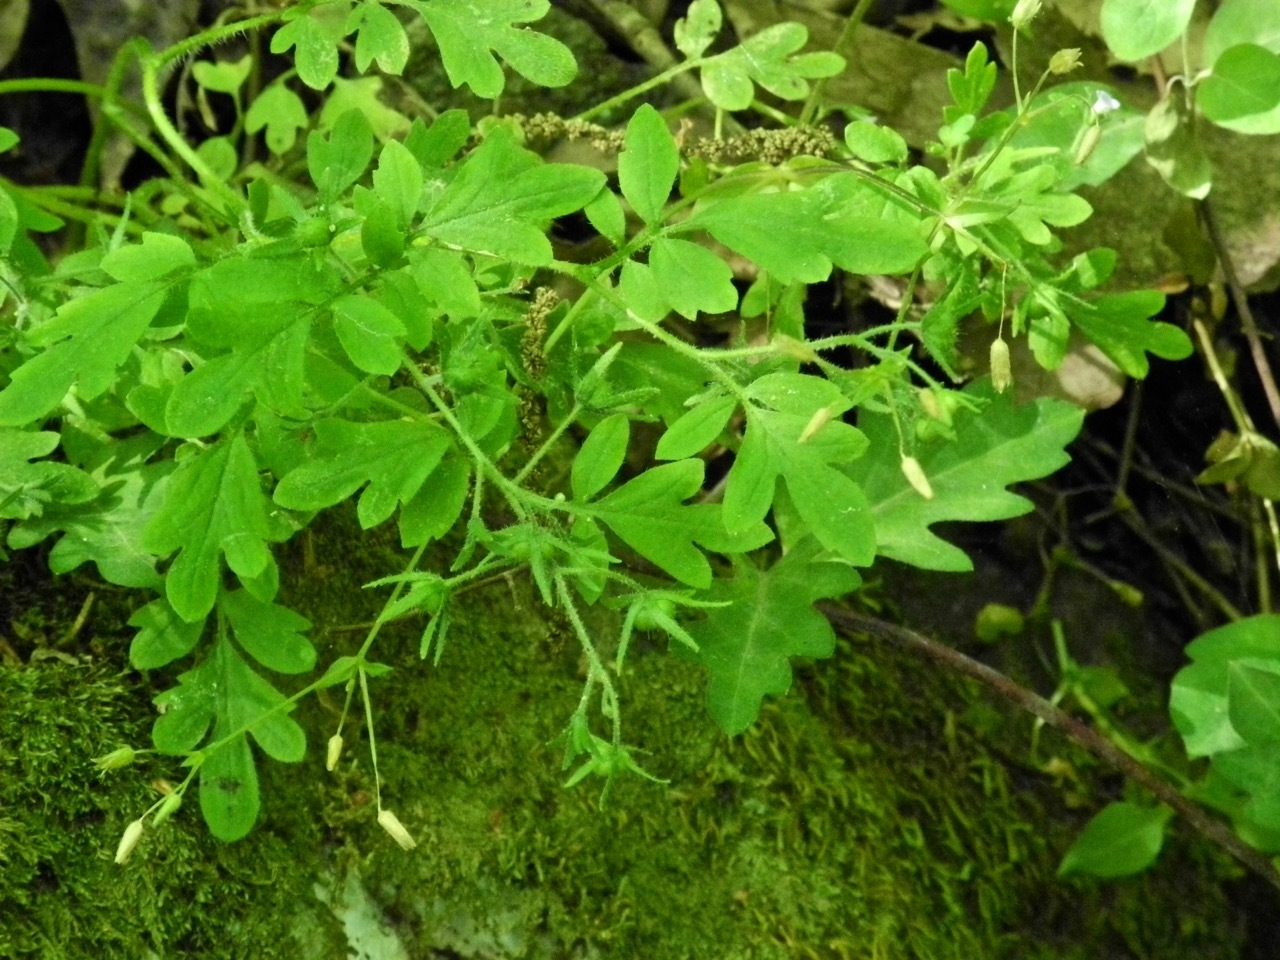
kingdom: Plantae
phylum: Tracheophyta
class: Magnoliopsida
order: Boraginales
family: Hydrophyllaceae
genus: Phacelia
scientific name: Phacelia covillei
